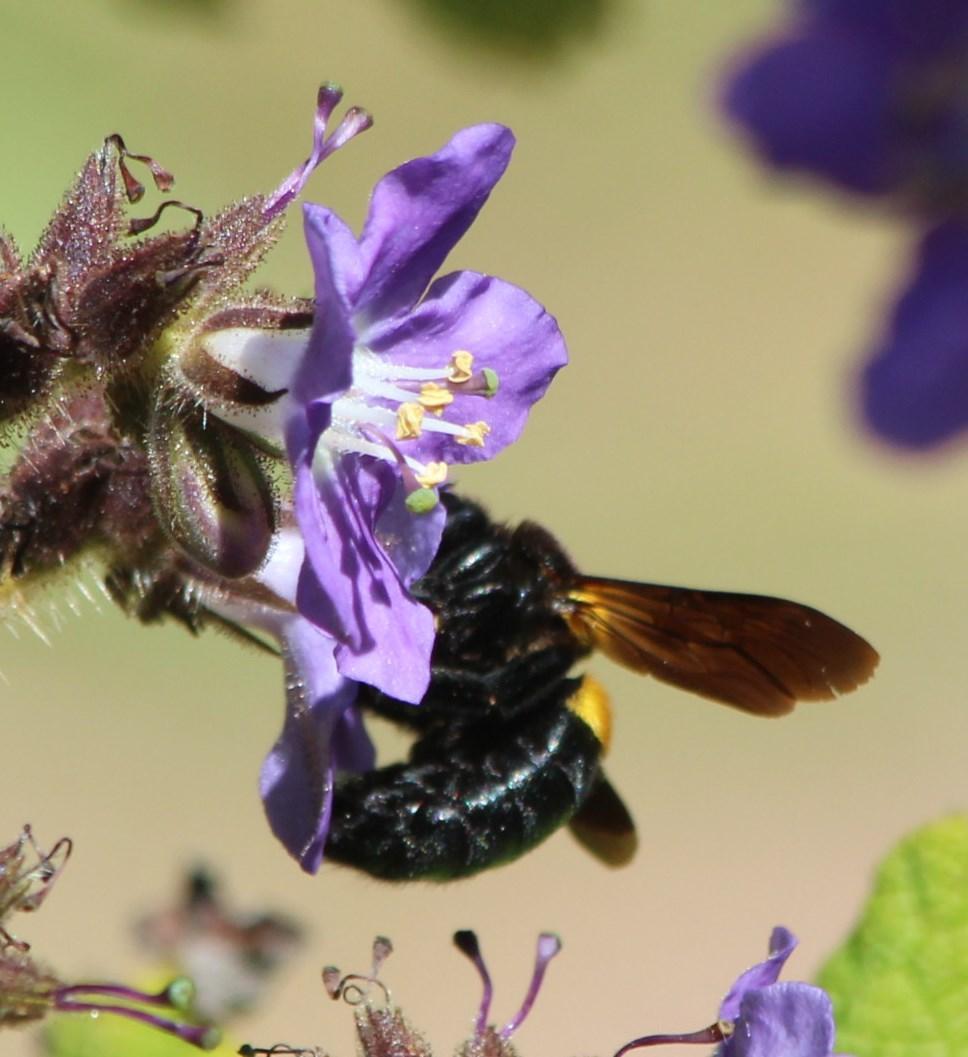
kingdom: Animalia
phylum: Arthropoda
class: Insecta
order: Hymenoptera
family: Apidae
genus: Xylocopa
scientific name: Xylocopa caffra
